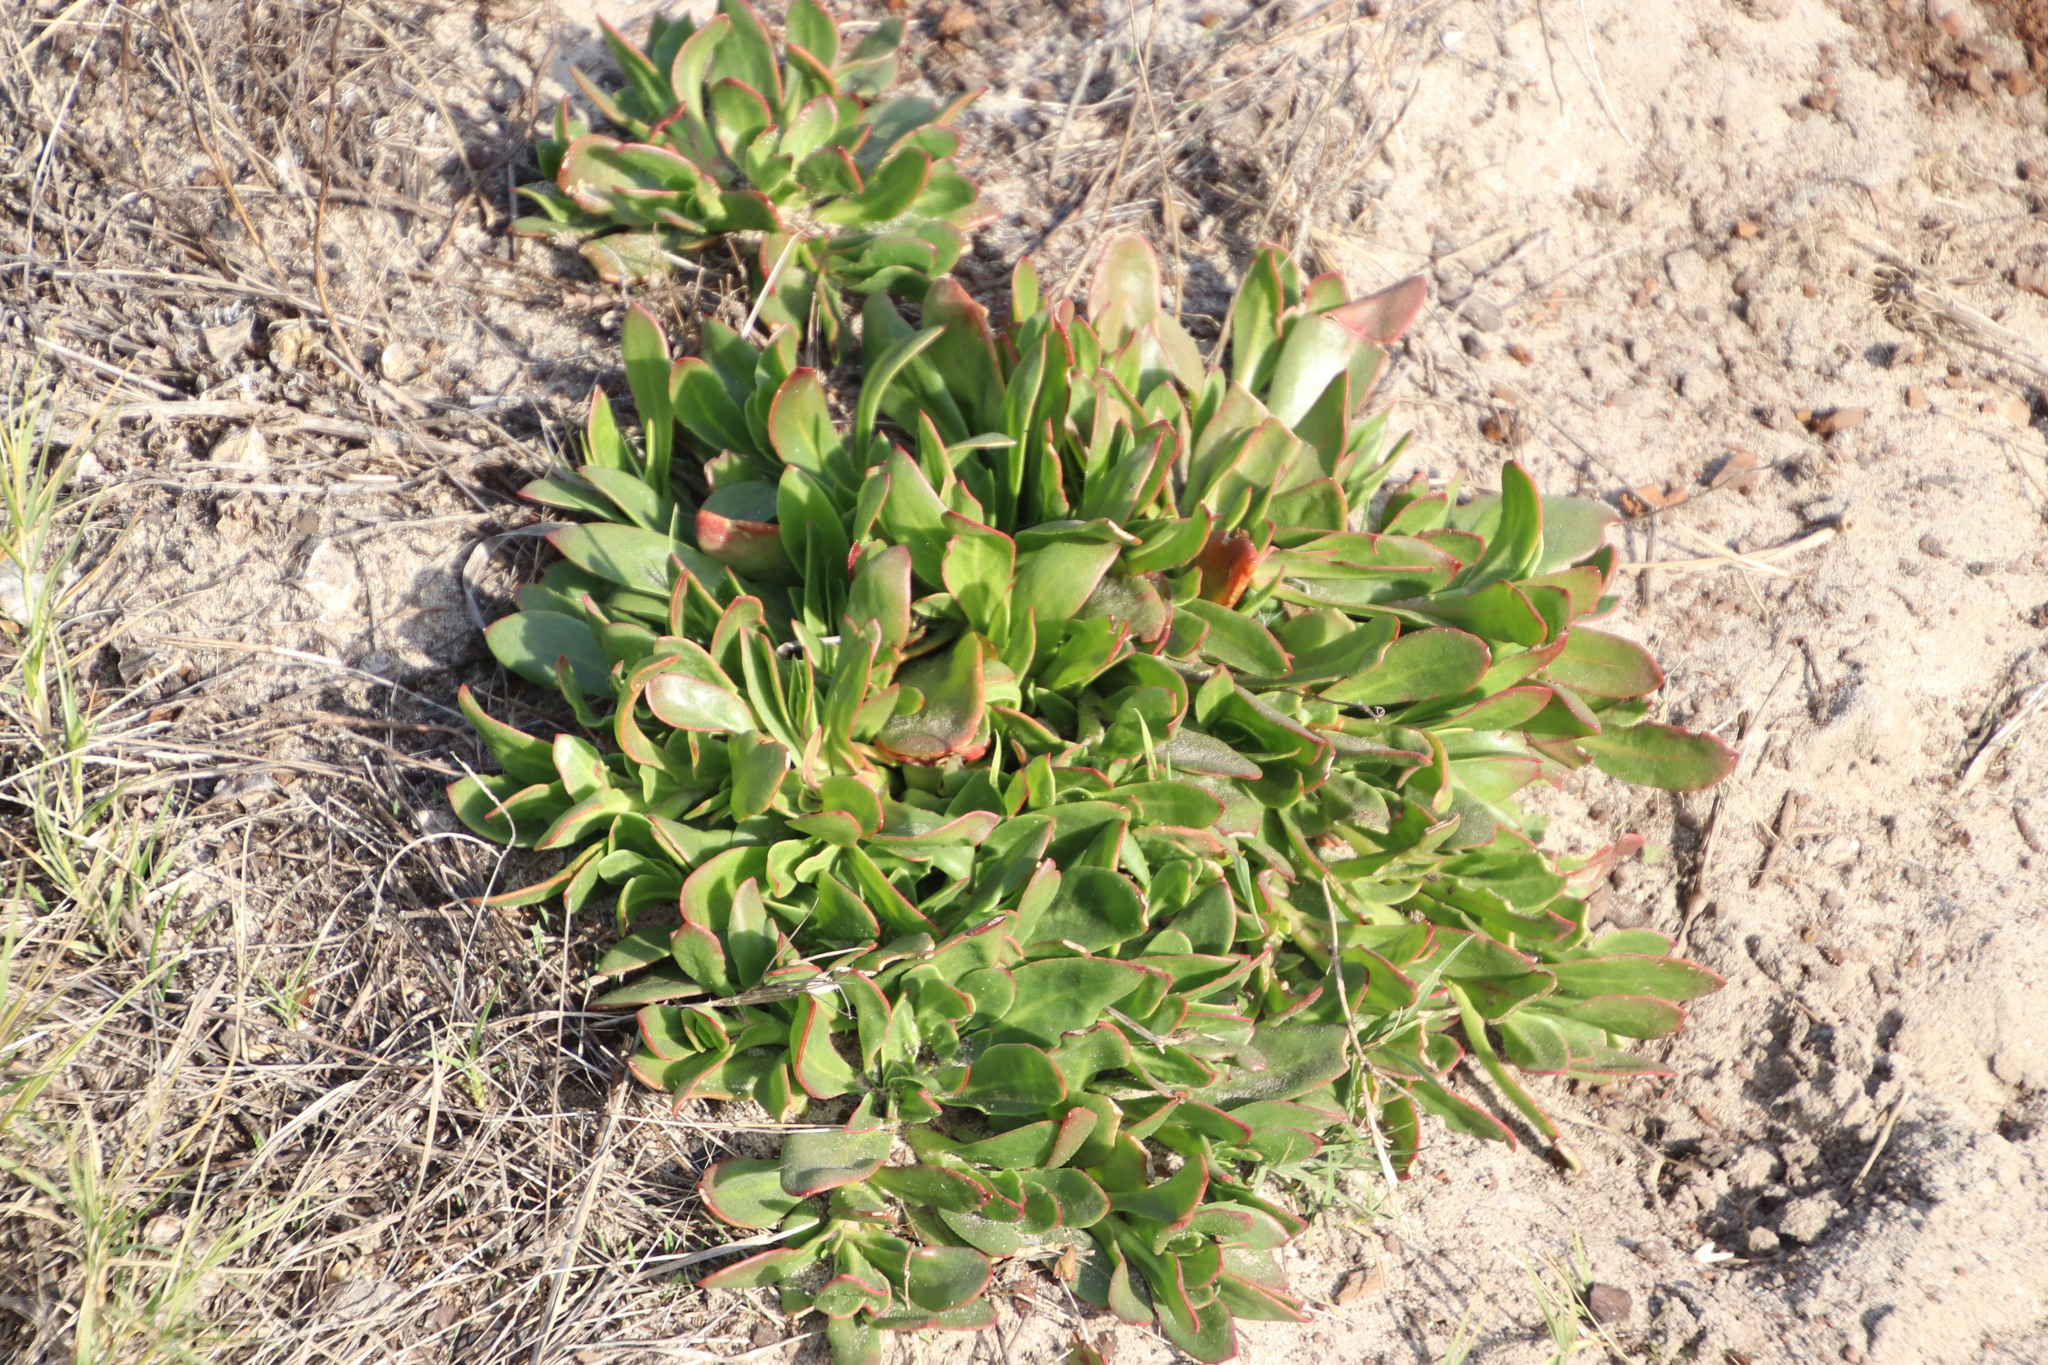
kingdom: Plantae
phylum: Tracheophyta
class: Magnoliopsida
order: Caryophyllales
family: Aizoaceae
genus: Skiatophytum
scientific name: Skiatophytum tripolium
